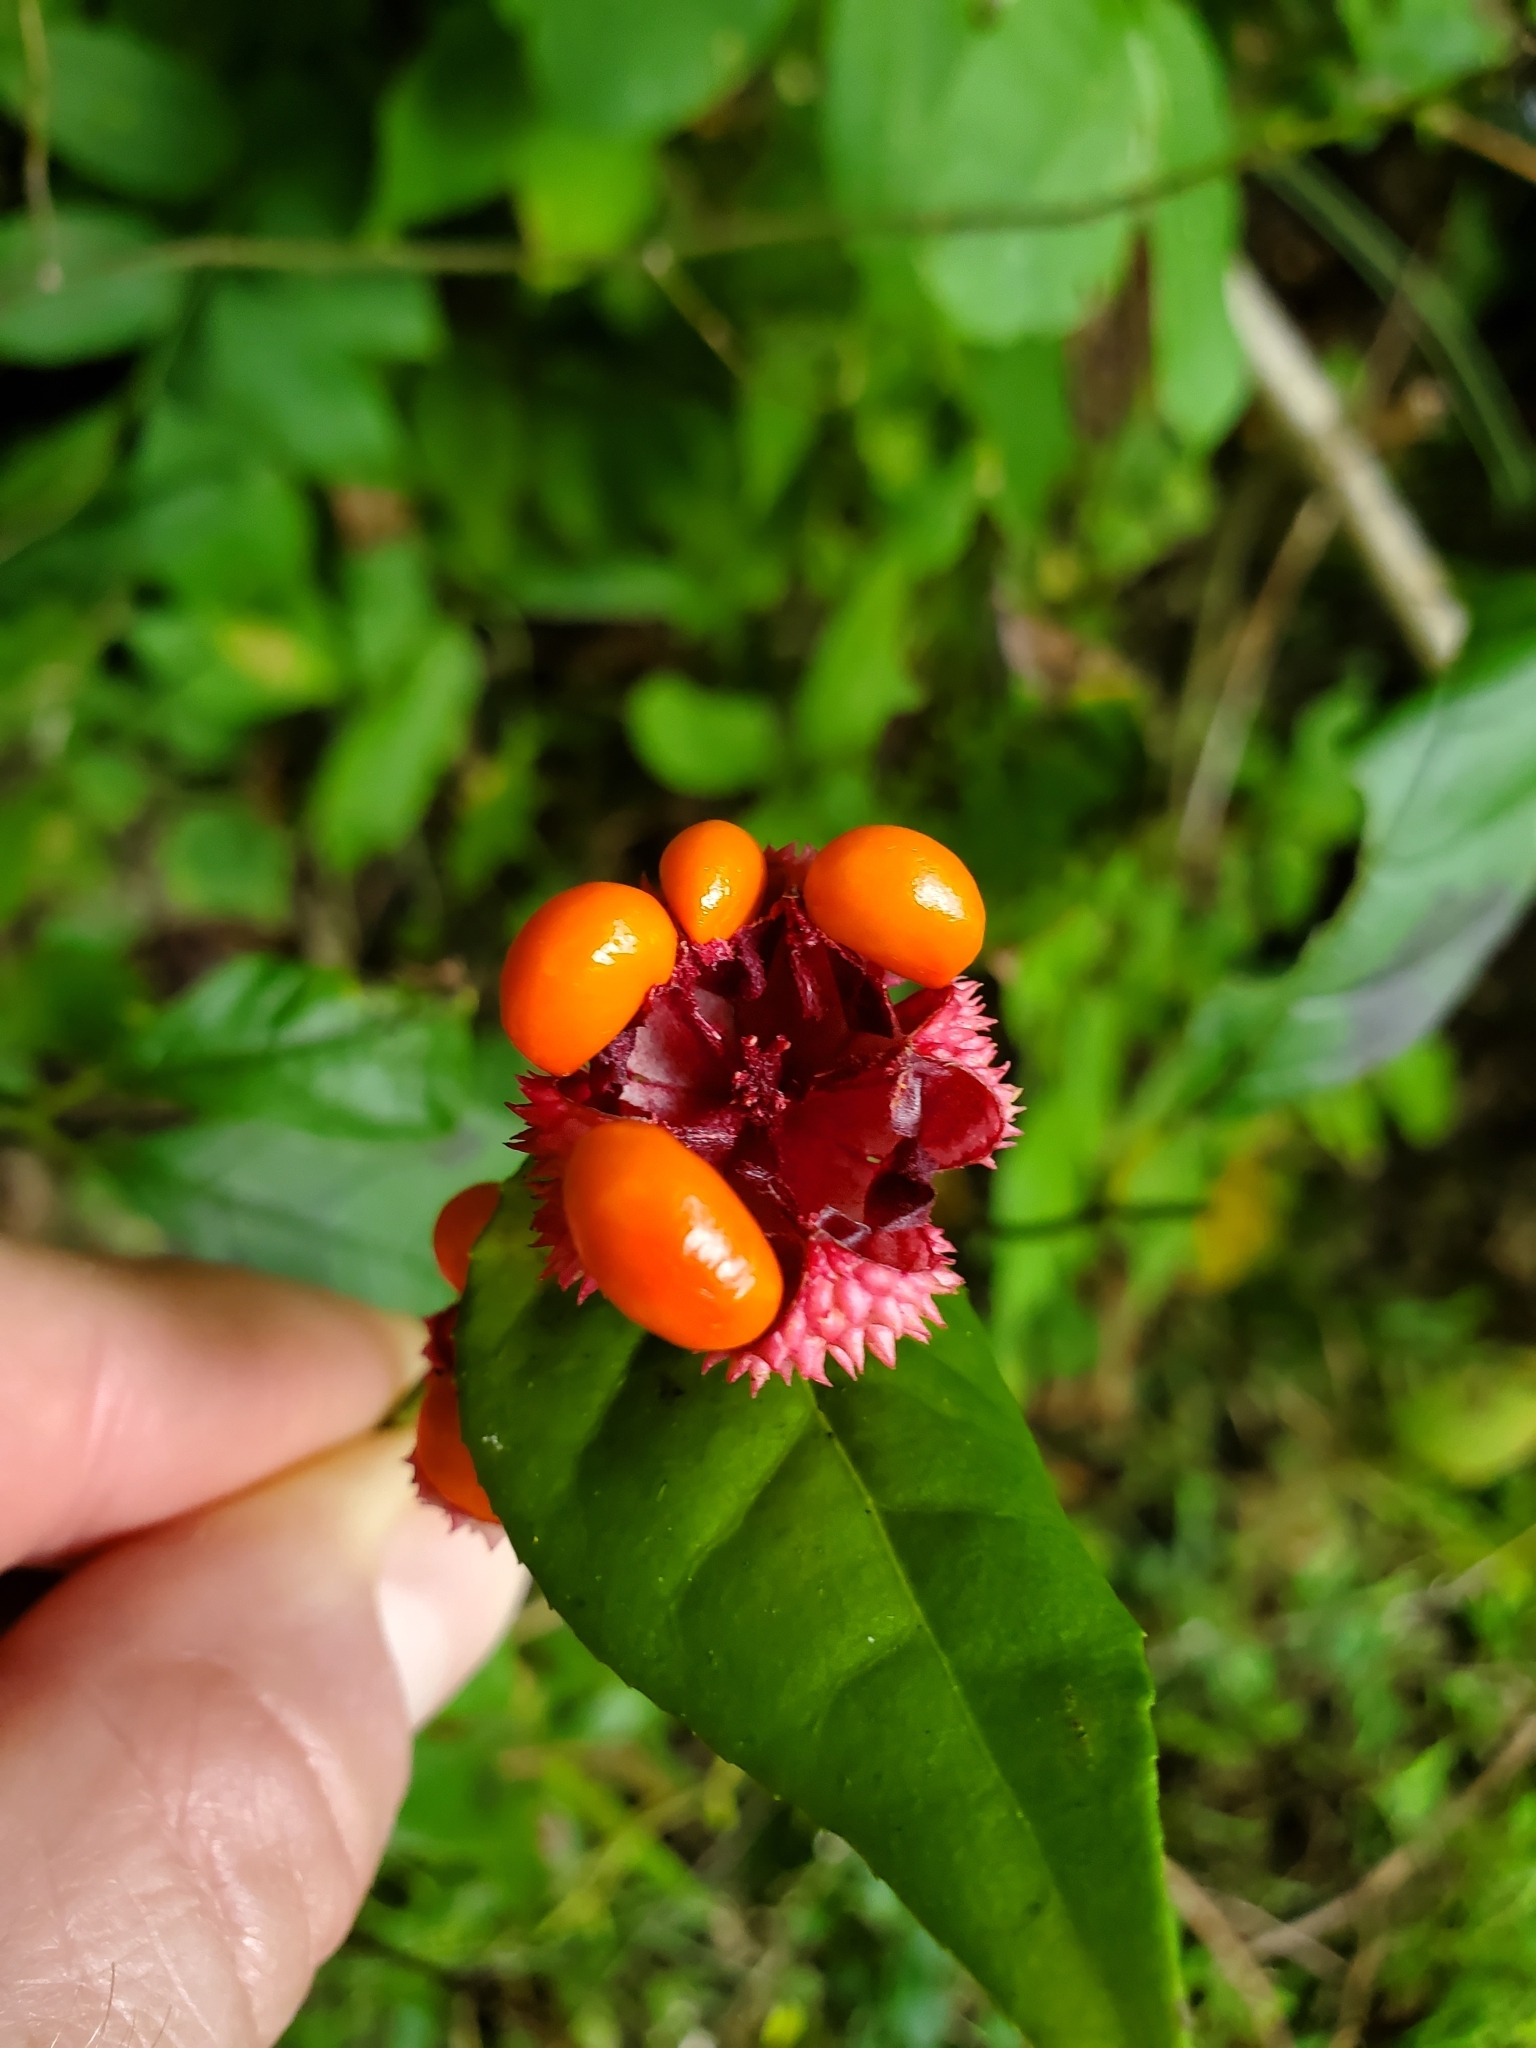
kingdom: Plantae
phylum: Tracheophyta
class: Magnoliopsida
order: Celastrales
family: Celastraceae
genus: Euonymus
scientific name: Euonymus americanus
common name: Bursting-heart
